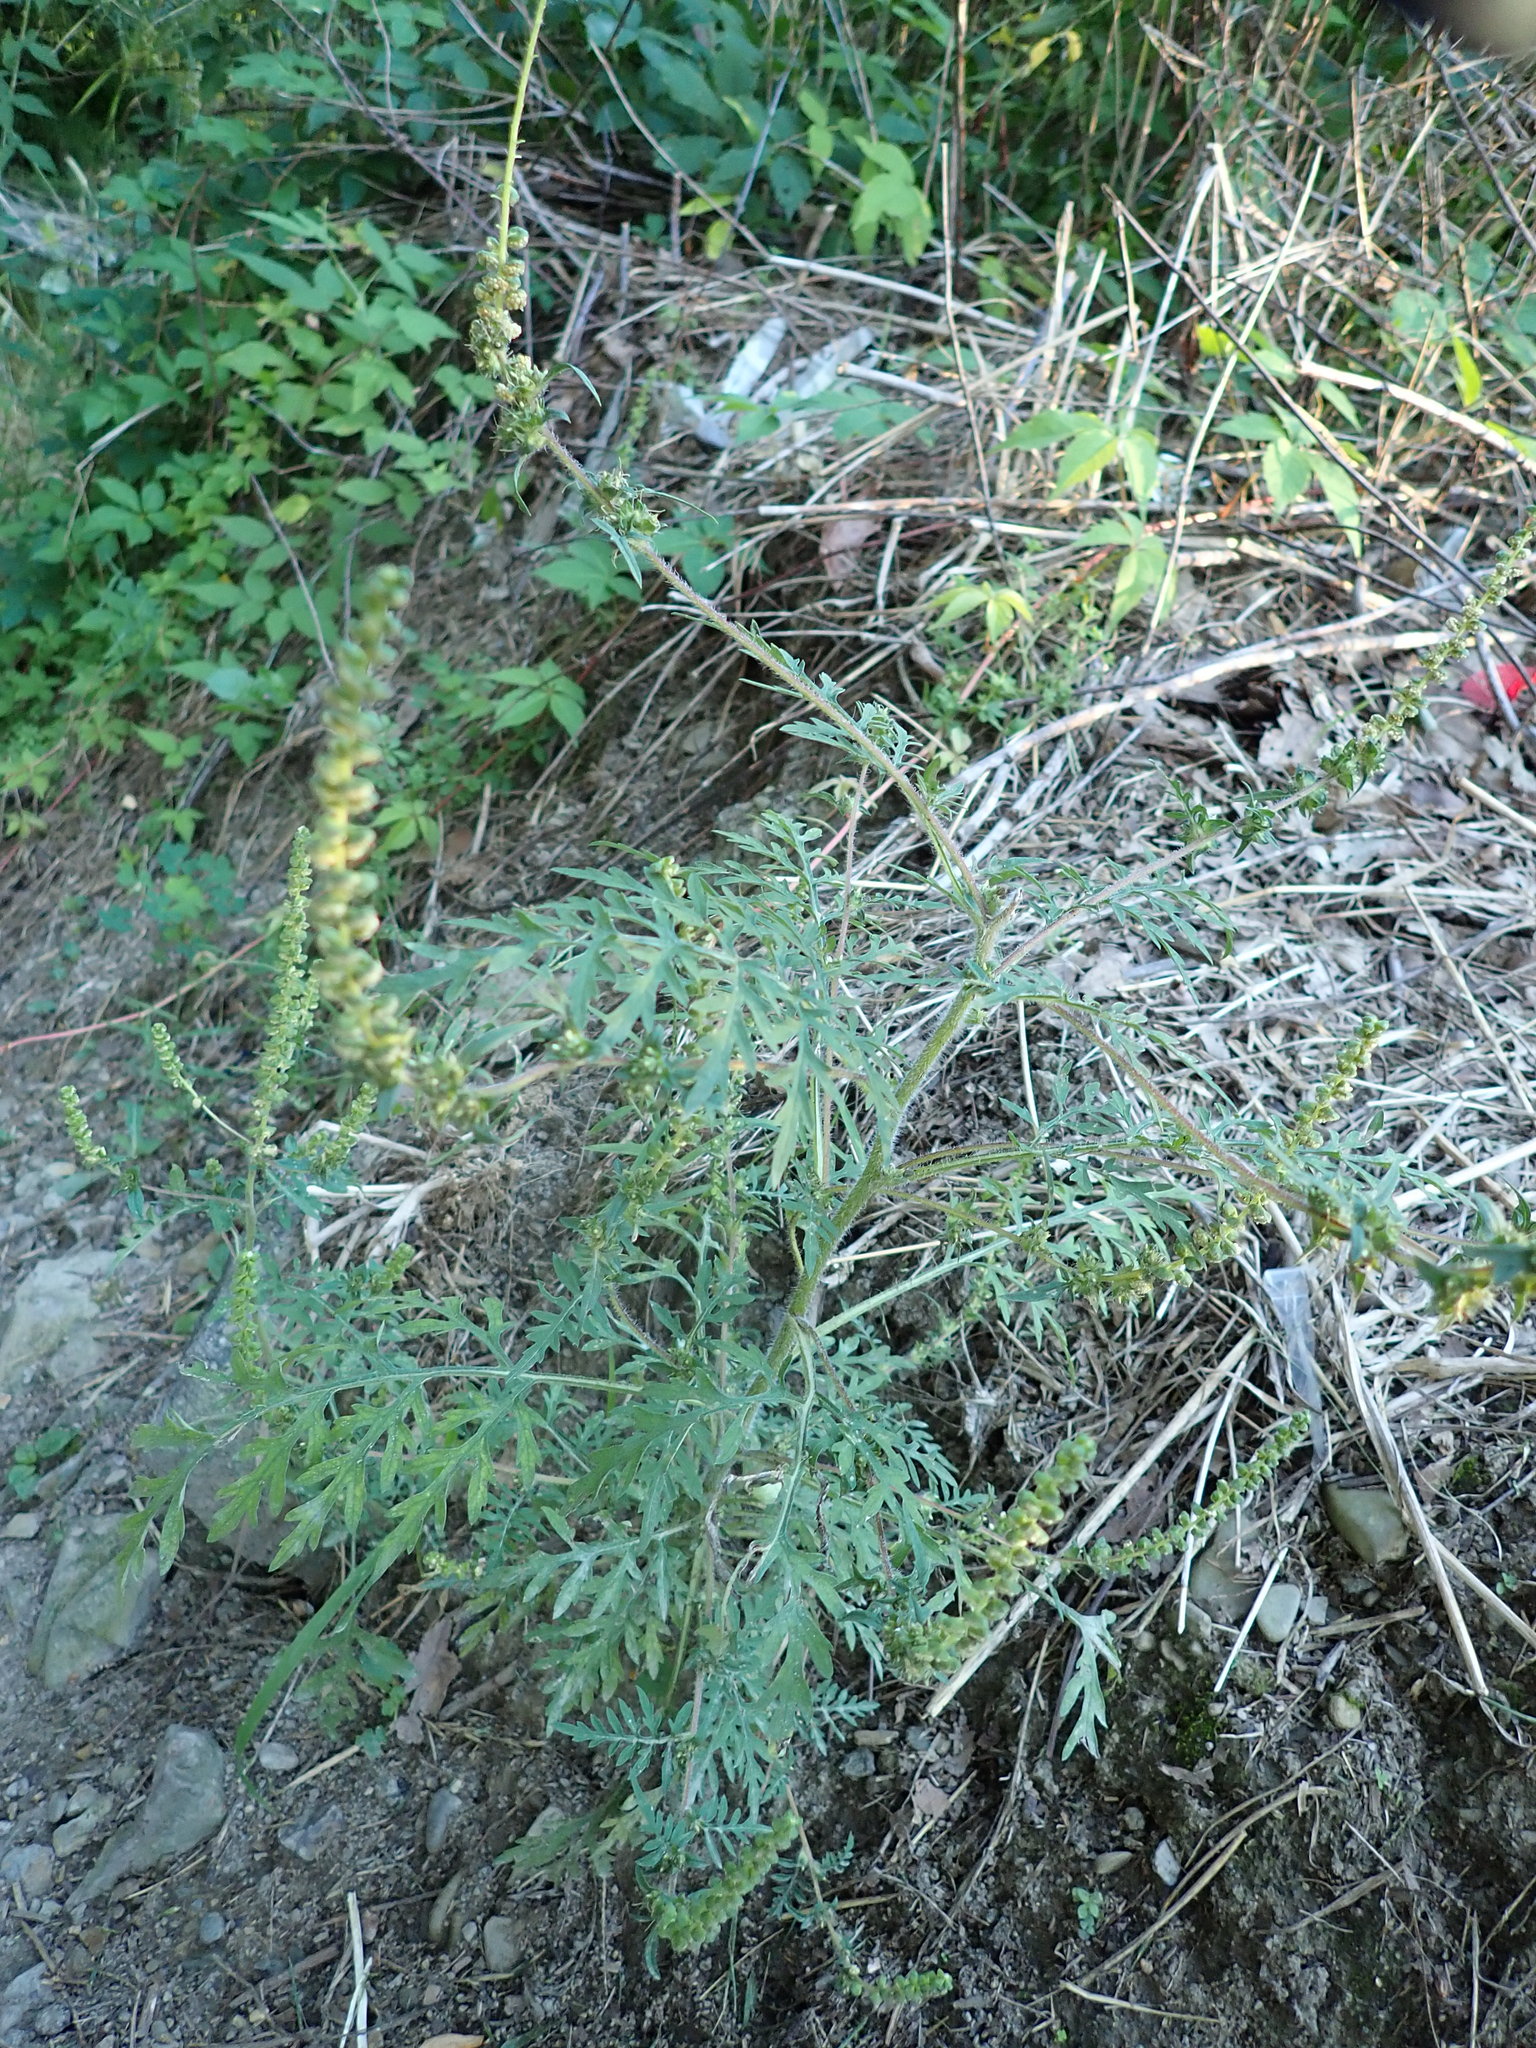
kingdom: Plantae
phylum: Tracheophyta
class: Magnoliopsida
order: Asterales
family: Asteraceae
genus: Ambrosia
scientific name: Ambrosia artemisiifolia
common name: Annual ragweed
